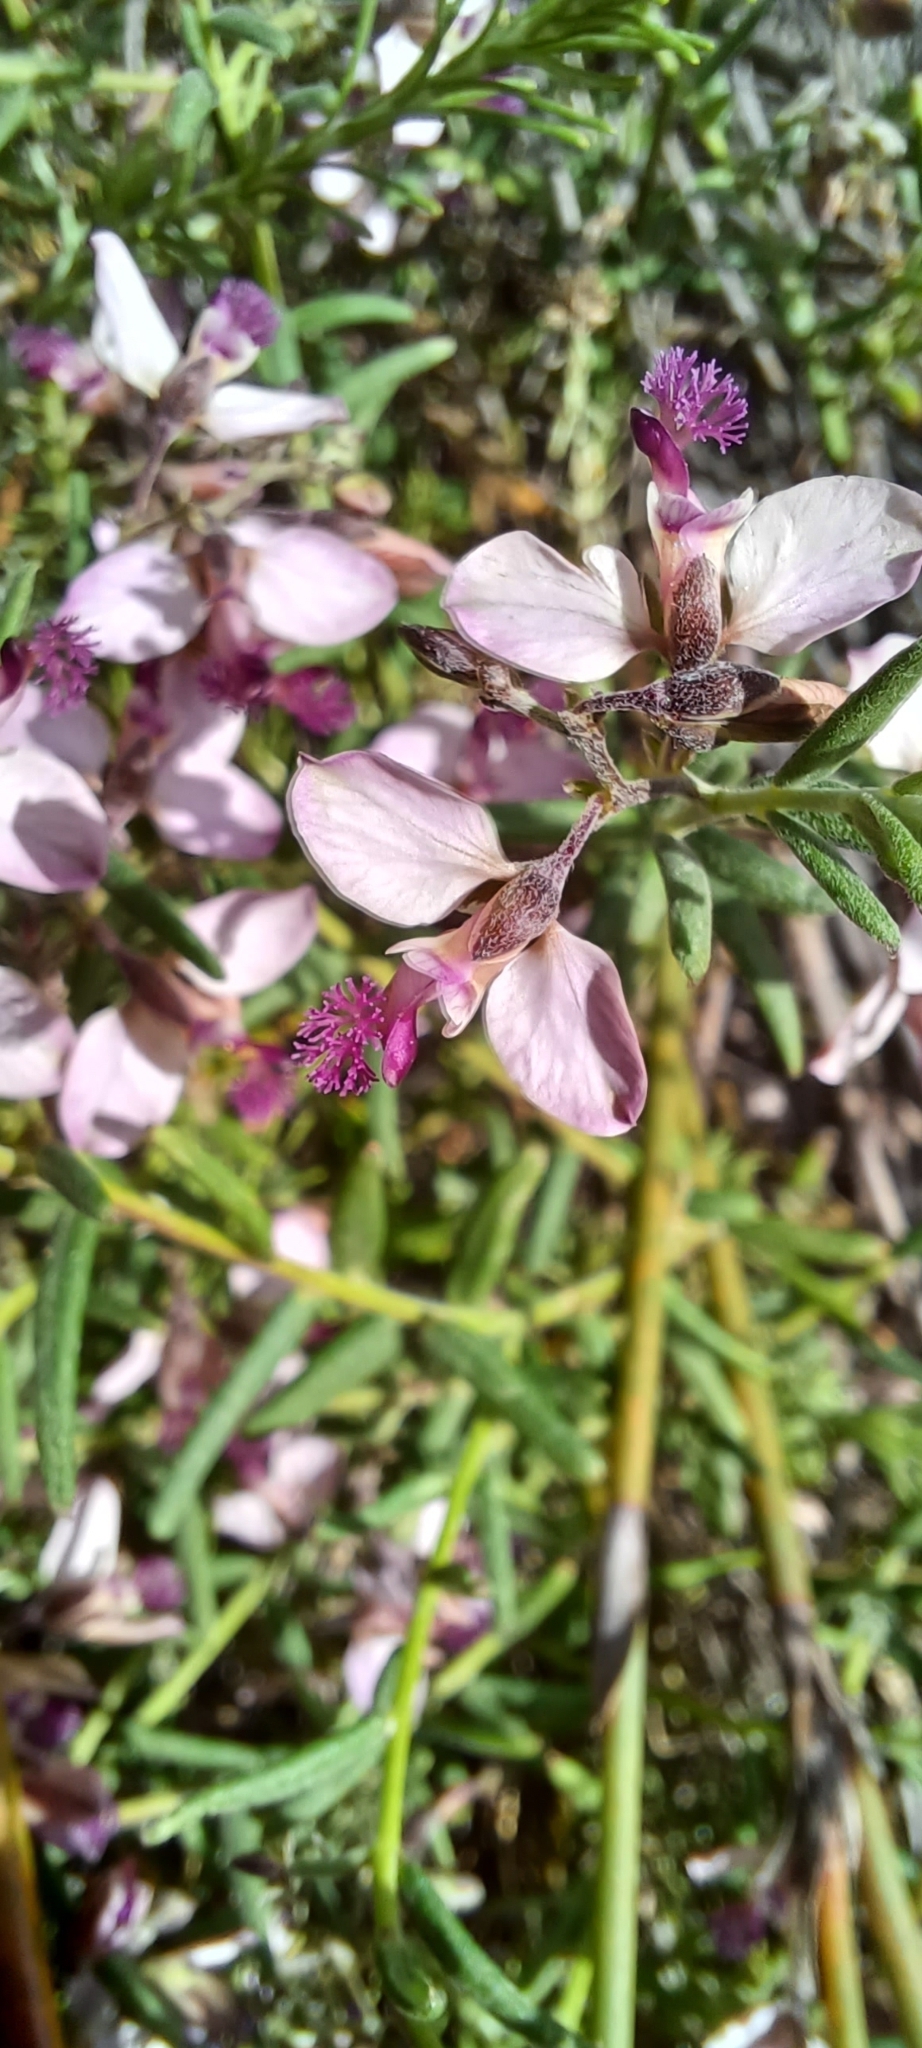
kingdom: Plantae
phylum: Tracheophyta
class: Magnoliopsida
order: Fabales
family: Polygalaceae
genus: Polygala
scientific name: Polygala scabra
